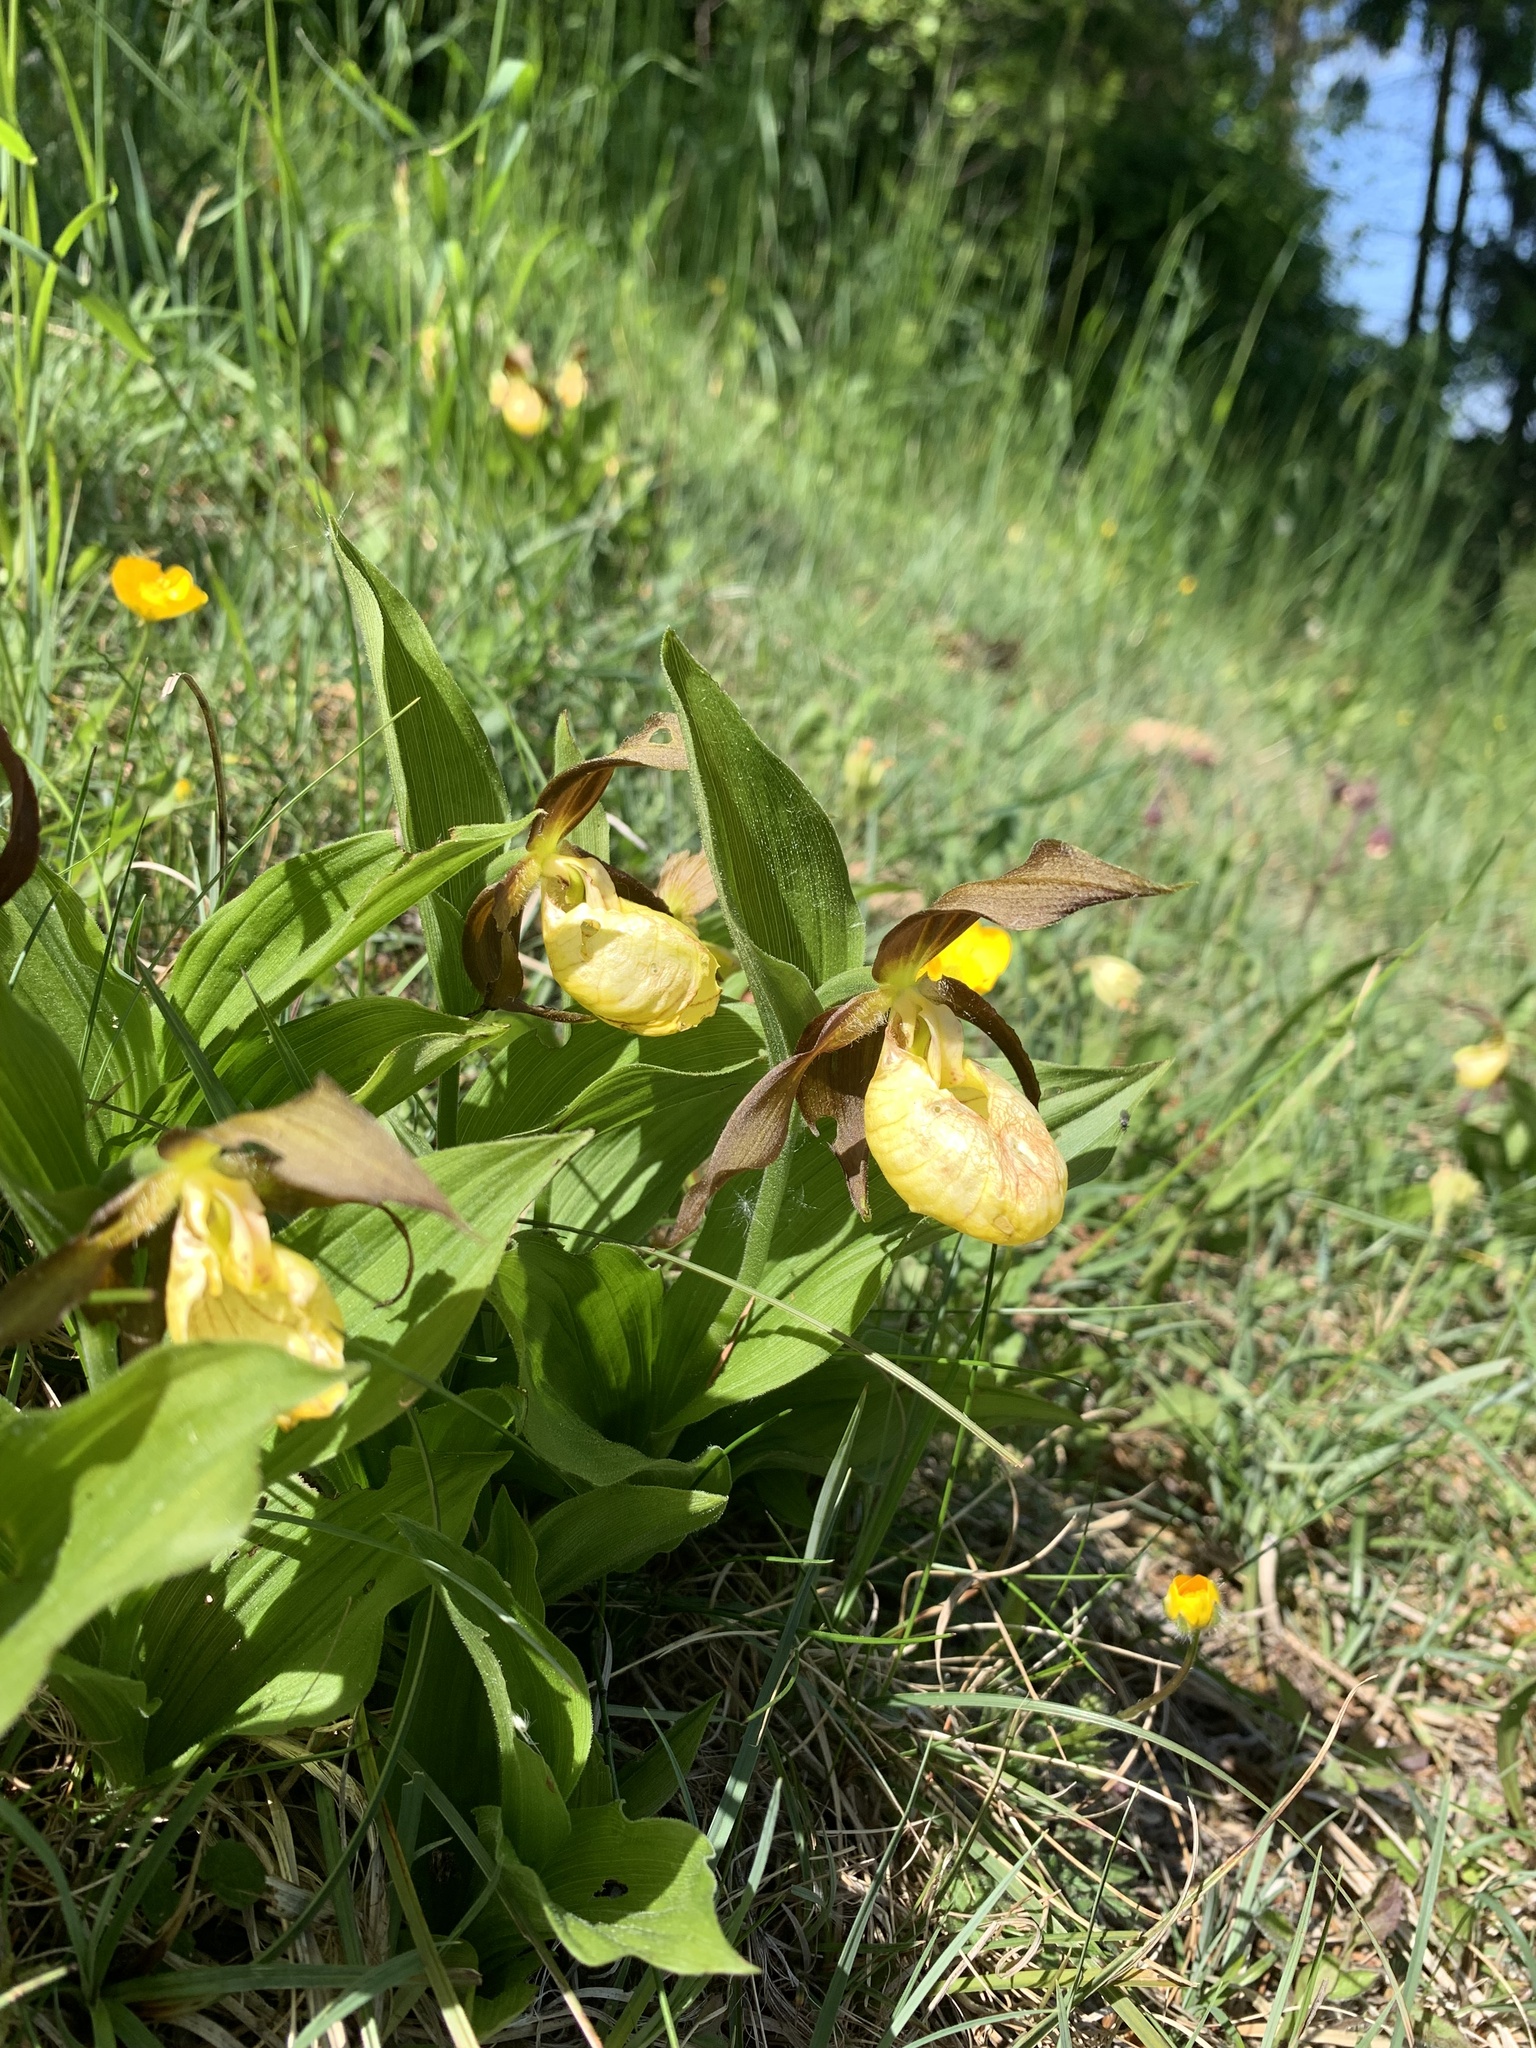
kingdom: Plantae
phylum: Tracheophyta
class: Liliopsida
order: Asparagales
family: Orchidaceae
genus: Cypripedium
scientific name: Cypripedium calceolus
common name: Lady's-slipper
